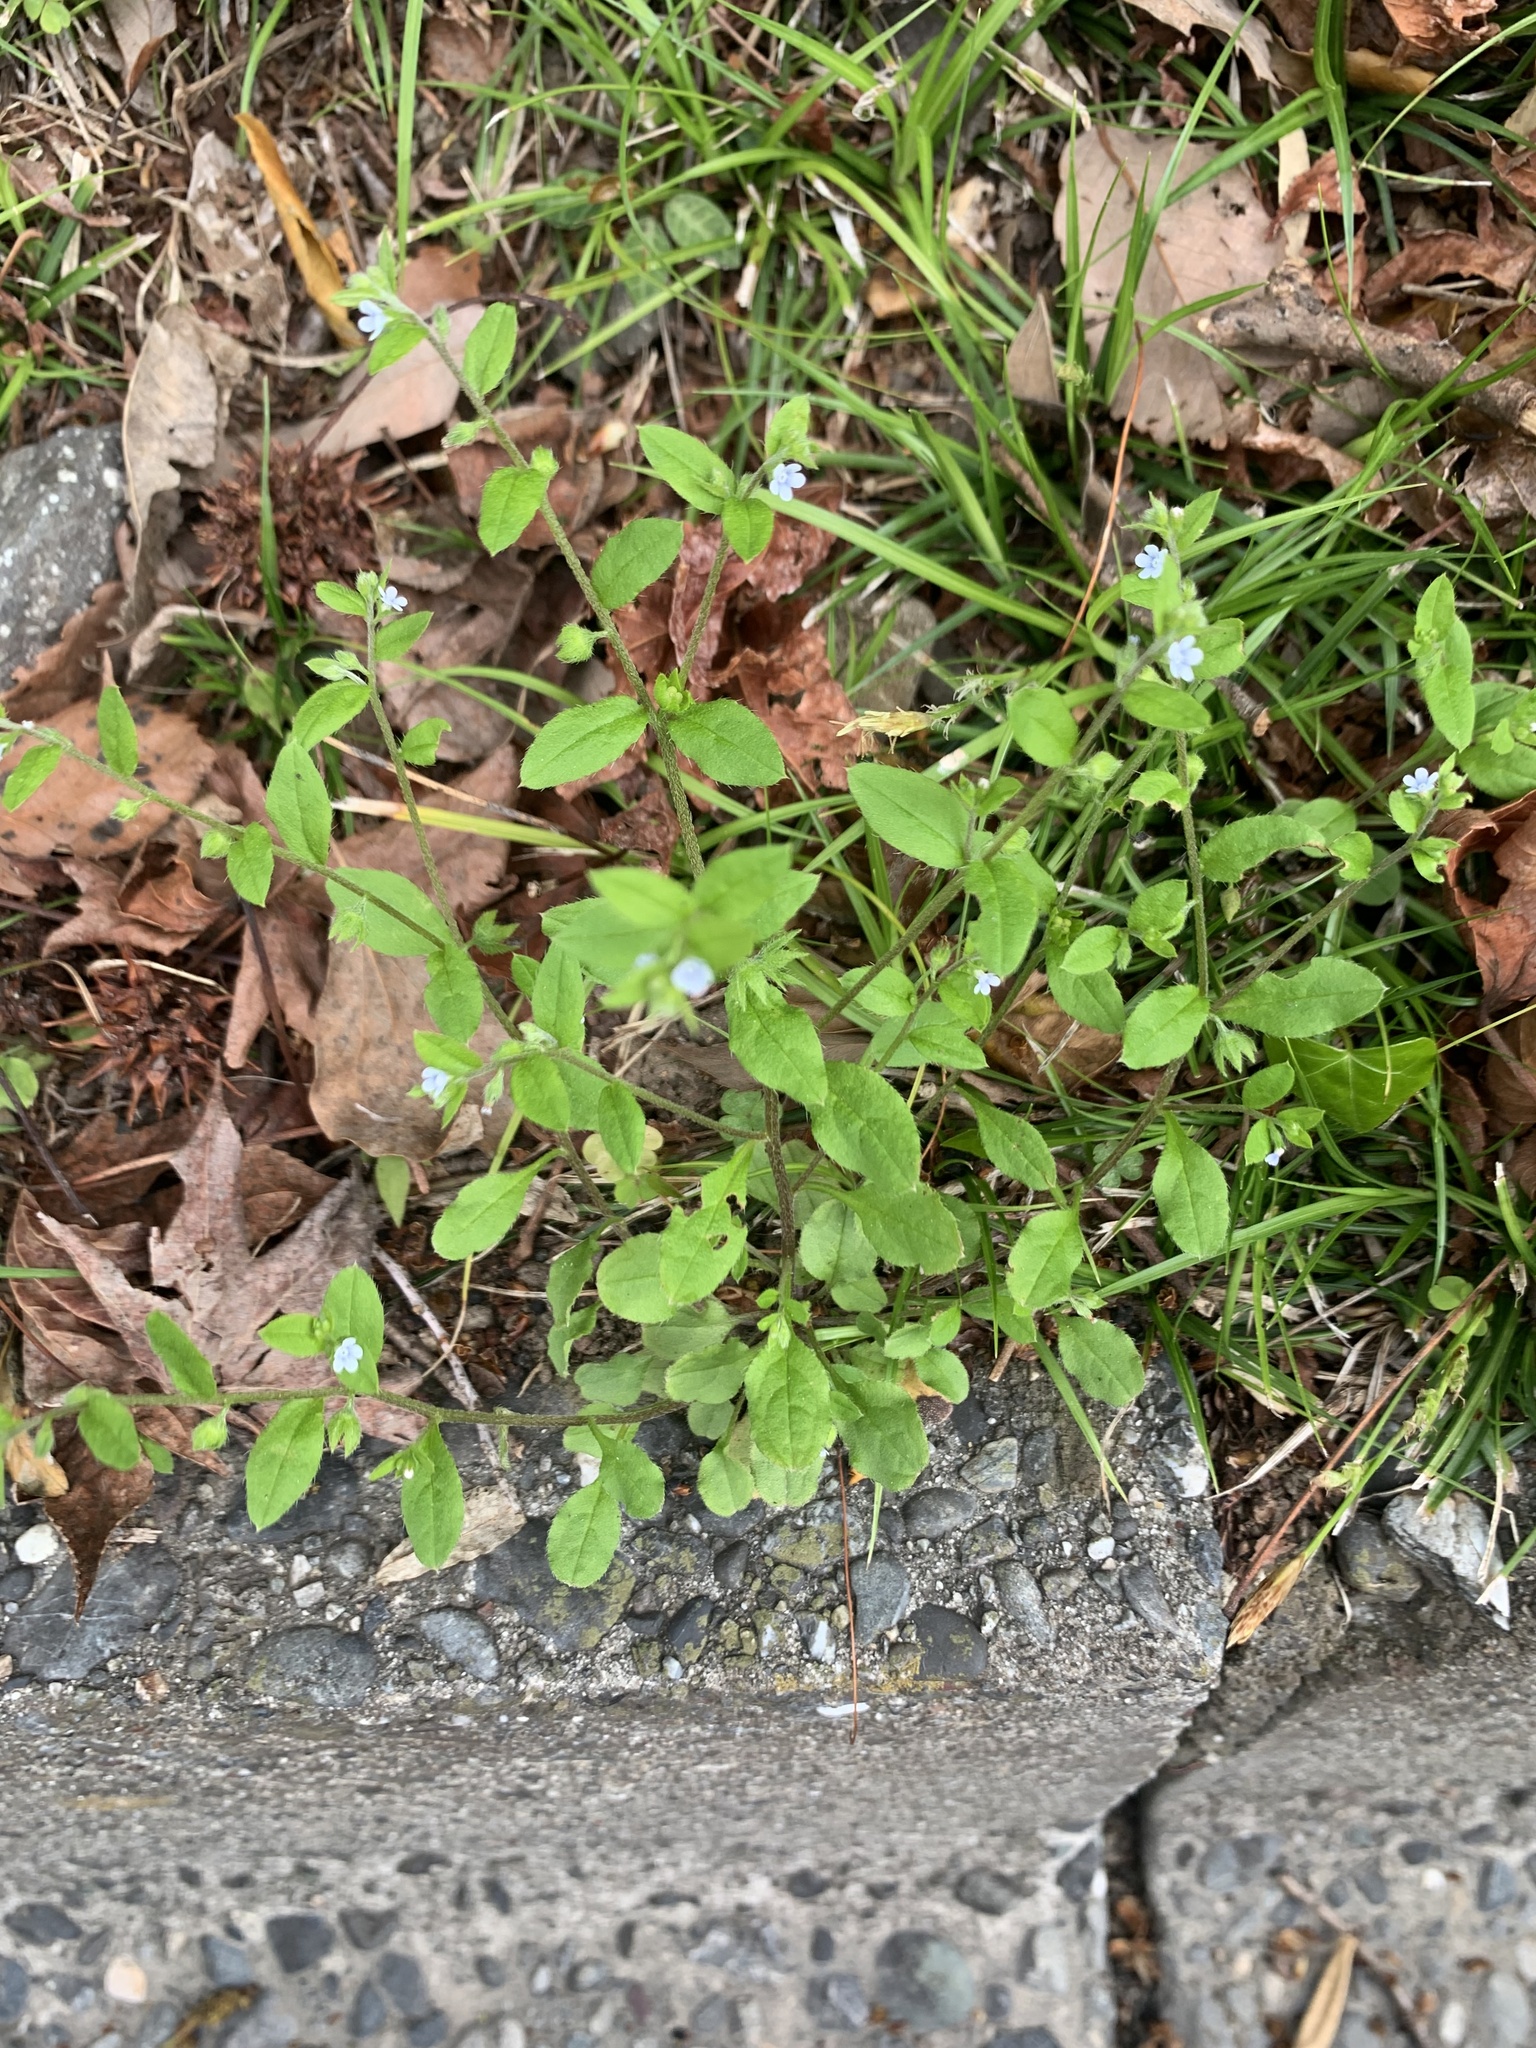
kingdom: Plantae
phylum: Tracheophyta
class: Magnoliopsida
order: Boraginales
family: Boraginaceae
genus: Bothriospermum
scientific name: Bothriospermum zeylanicum
